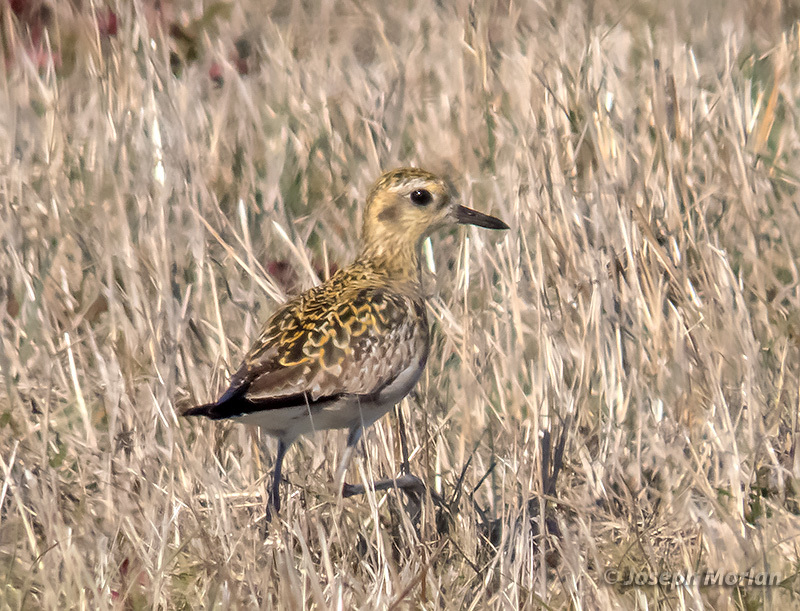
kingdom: Animalia
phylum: Chordata
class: Aves
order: Charadriiformes
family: Charadriidae
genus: Pluvialis
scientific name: Pluvialis fulva
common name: Pacific golden plover
